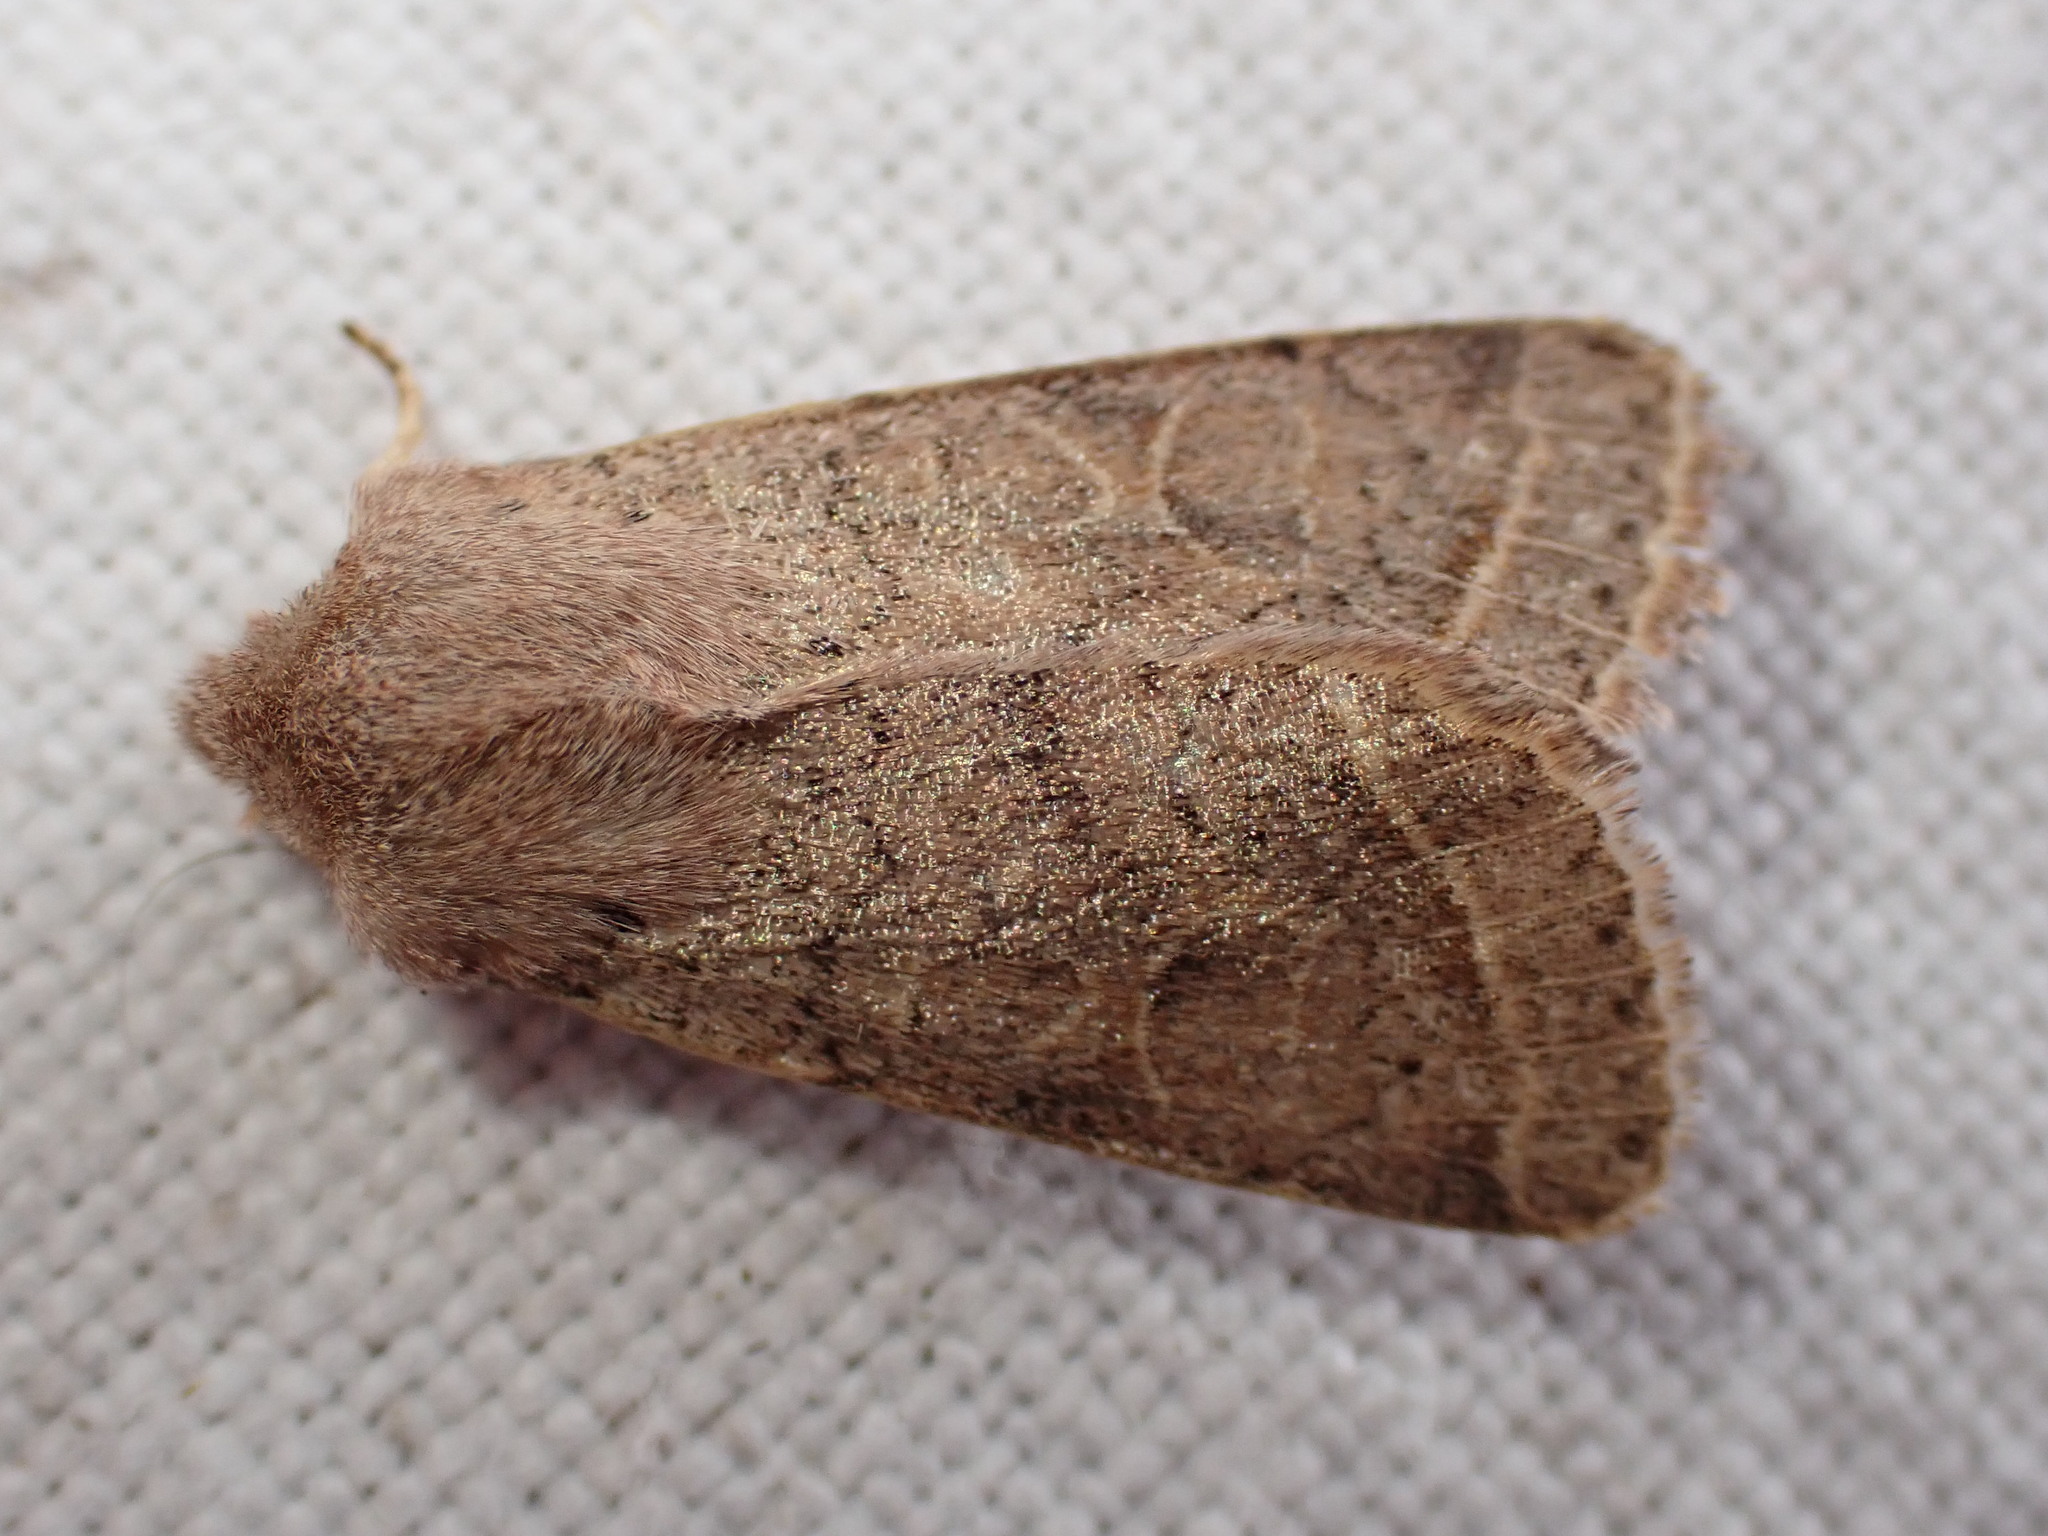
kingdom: Animalia
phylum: Arthropoda
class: Insecta
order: Lepidoptera
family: Noctuidae
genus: Orthosia
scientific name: Orthosia cerasi
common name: Common quaker
